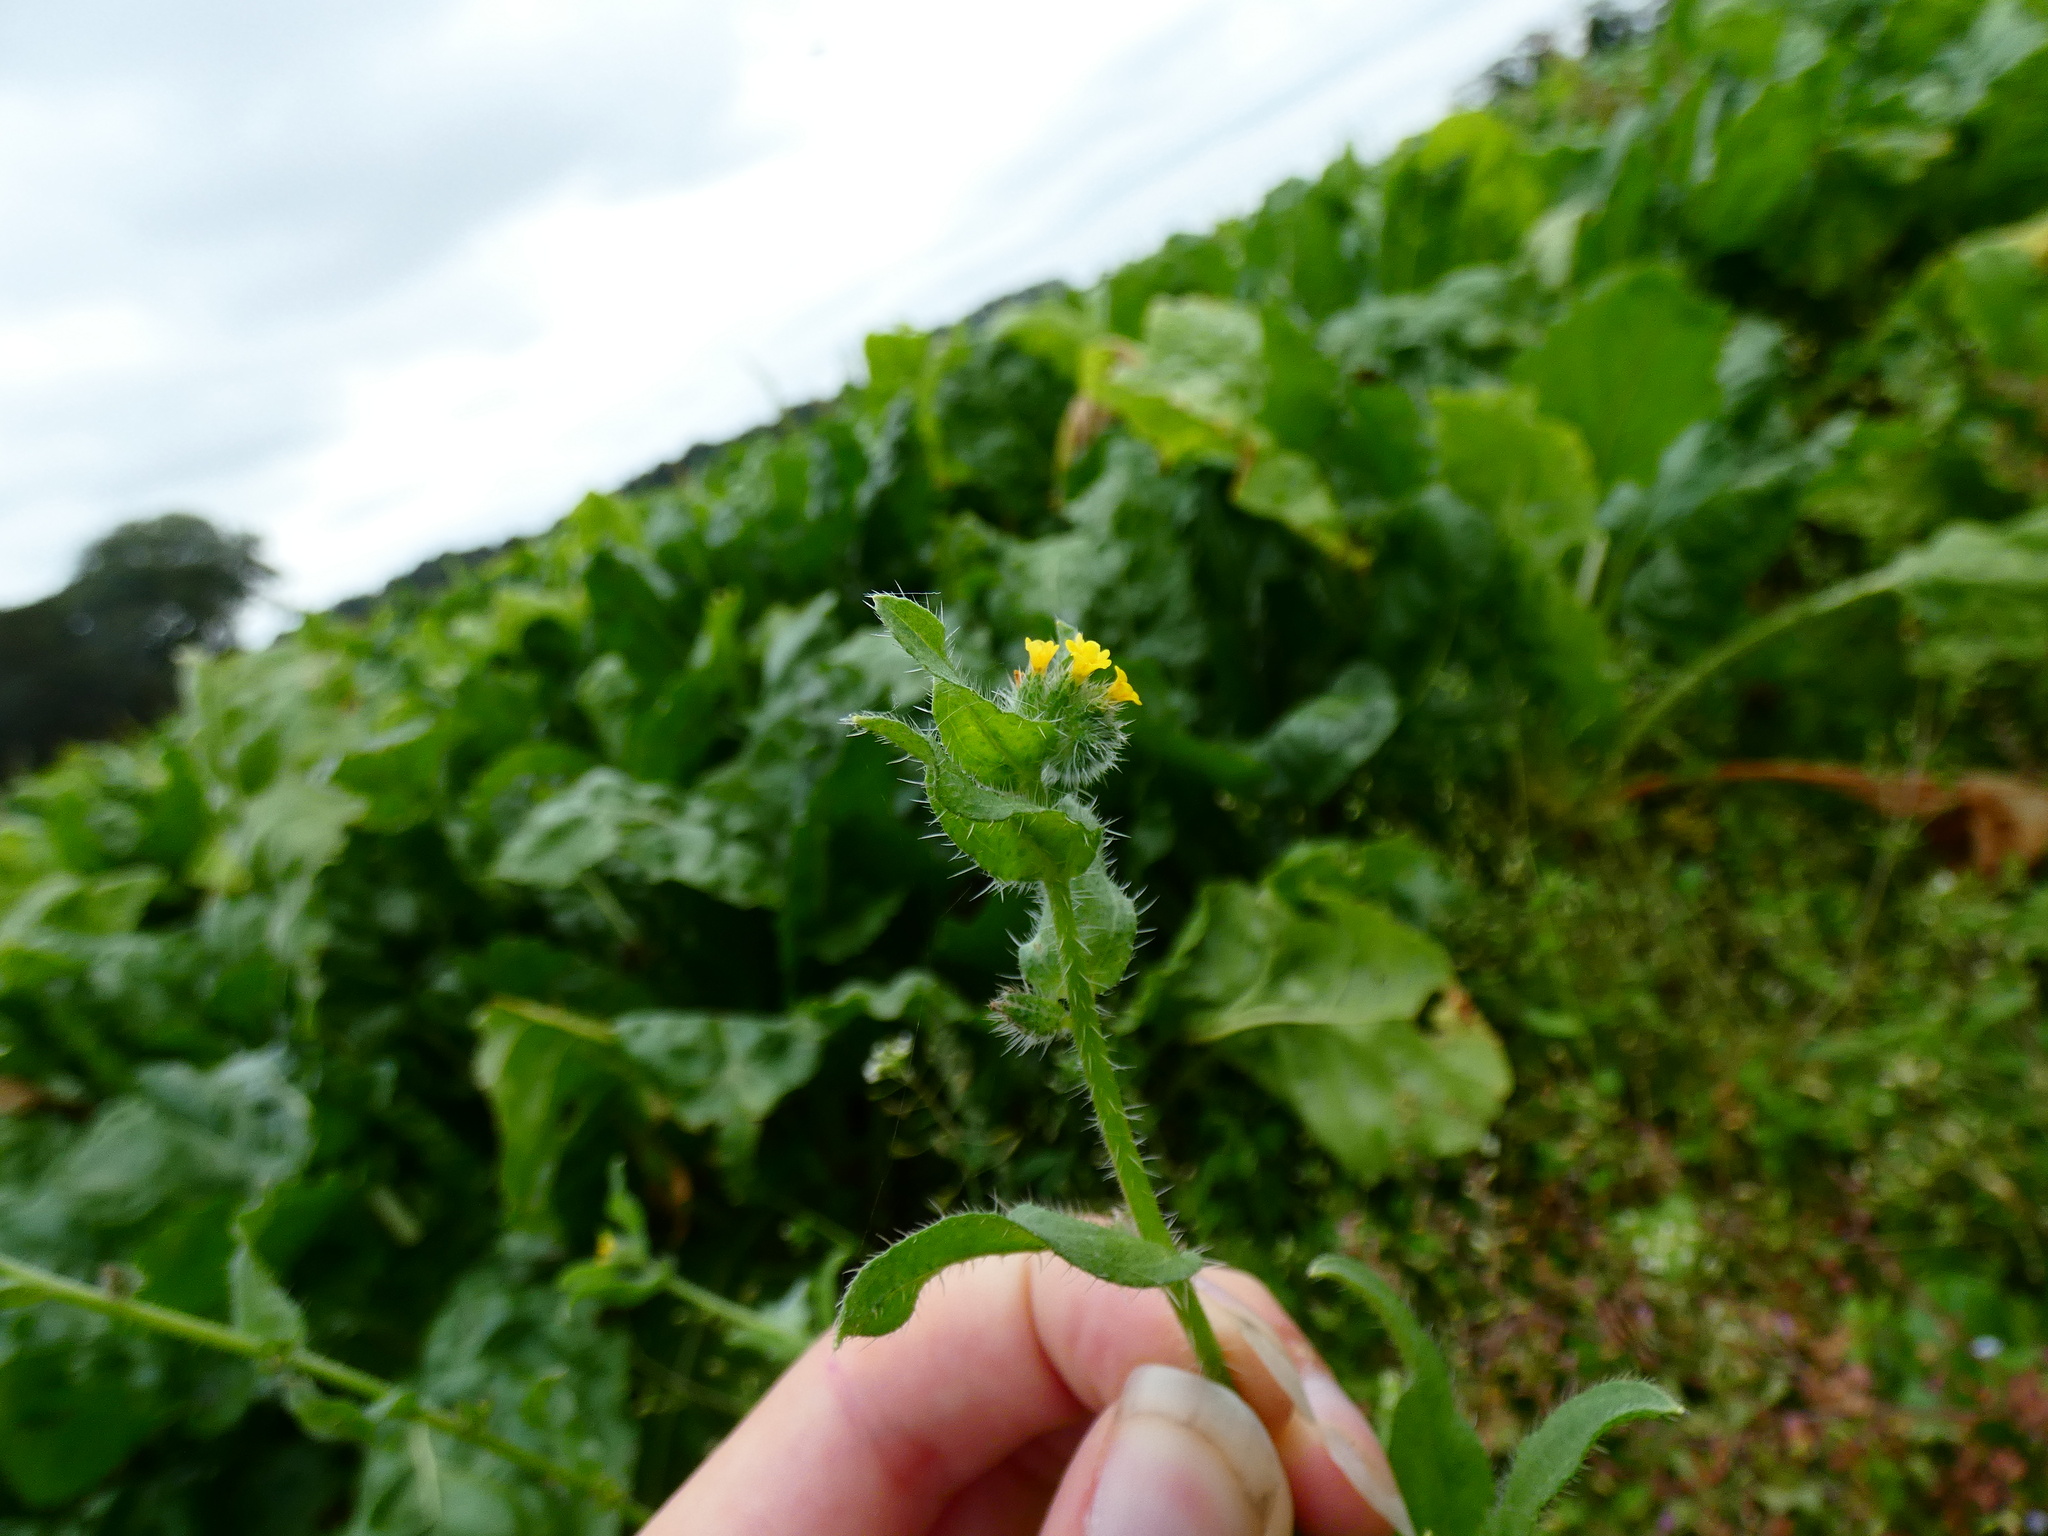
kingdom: Plantae
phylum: Tracheophyta
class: Magnoliopsida
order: Boraginales
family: Boraginaceae
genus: Amsinckia
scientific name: Amsinckia menziesii
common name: Menzies' fiddleneck
